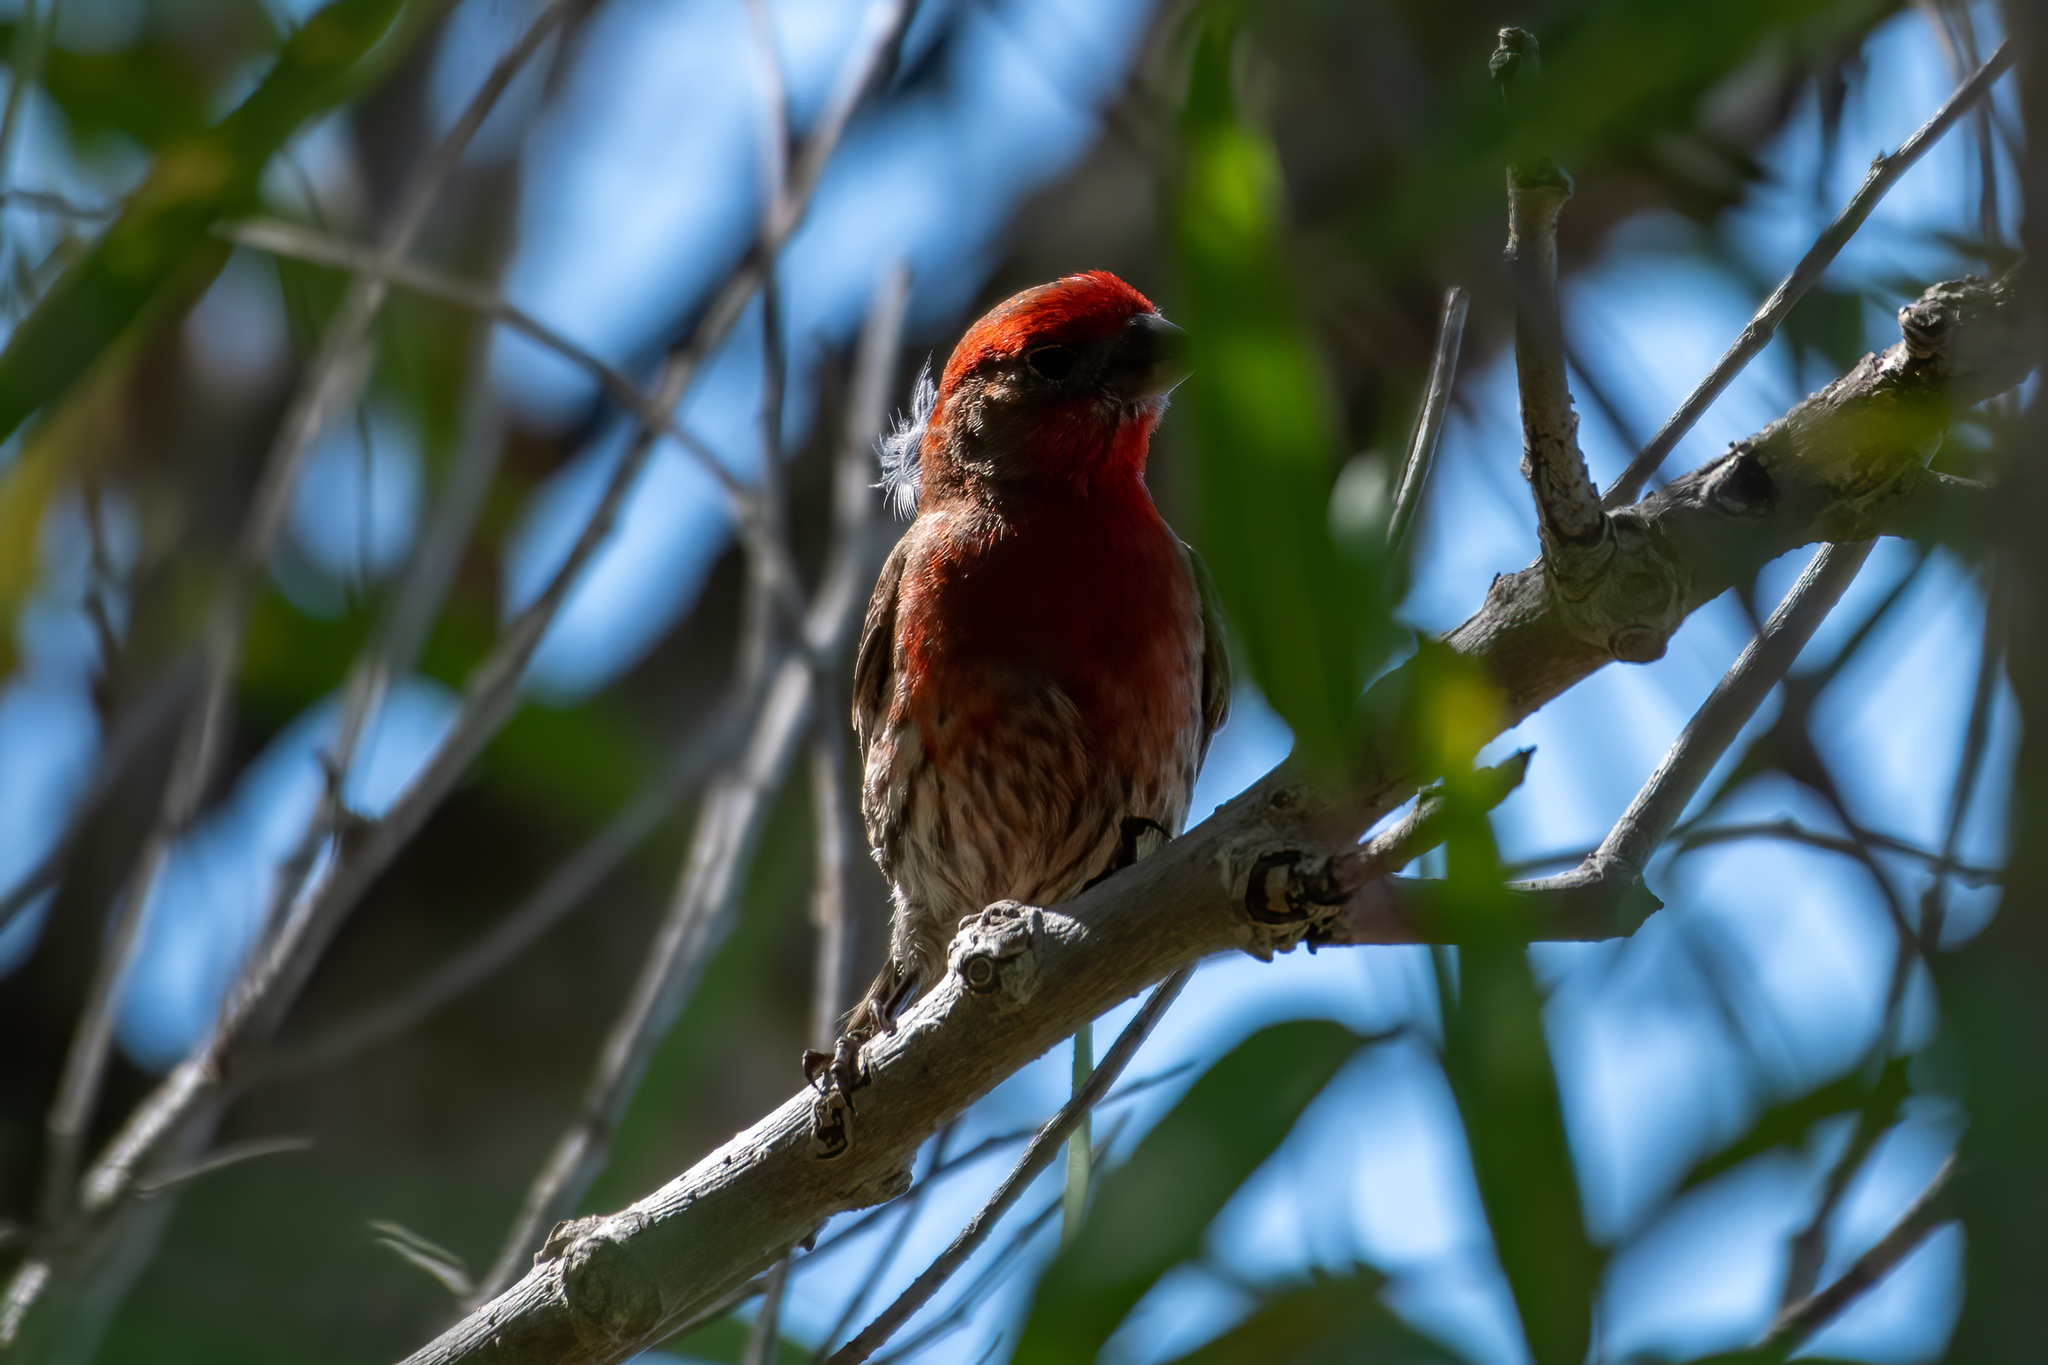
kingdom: Animalia
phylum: Chordata
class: Aves
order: Passeriformes
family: Fringillidae
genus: Haemorhous
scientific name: Haemorhous mexicanus
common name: House finch
